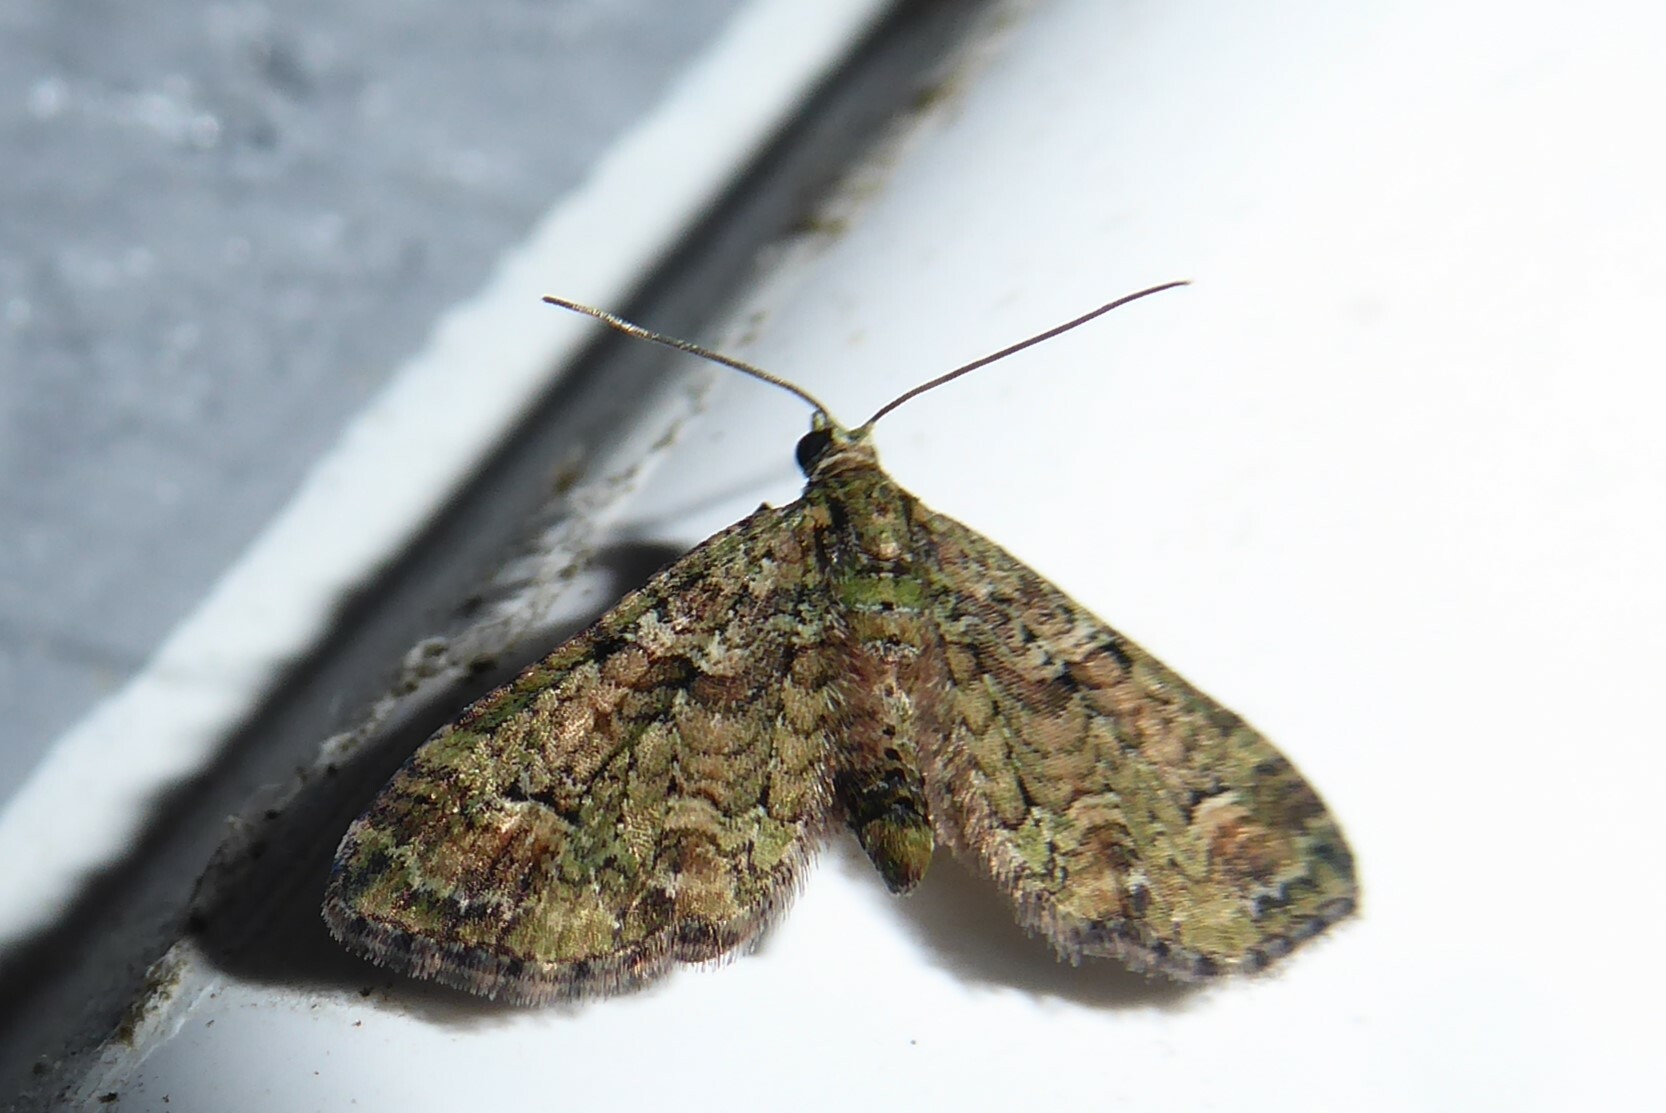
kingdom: Animalia
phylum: Arthropoda
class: Insecta
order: Lepidoptera
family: Geometridae
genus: Idaea
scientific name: Idaea mutanda
